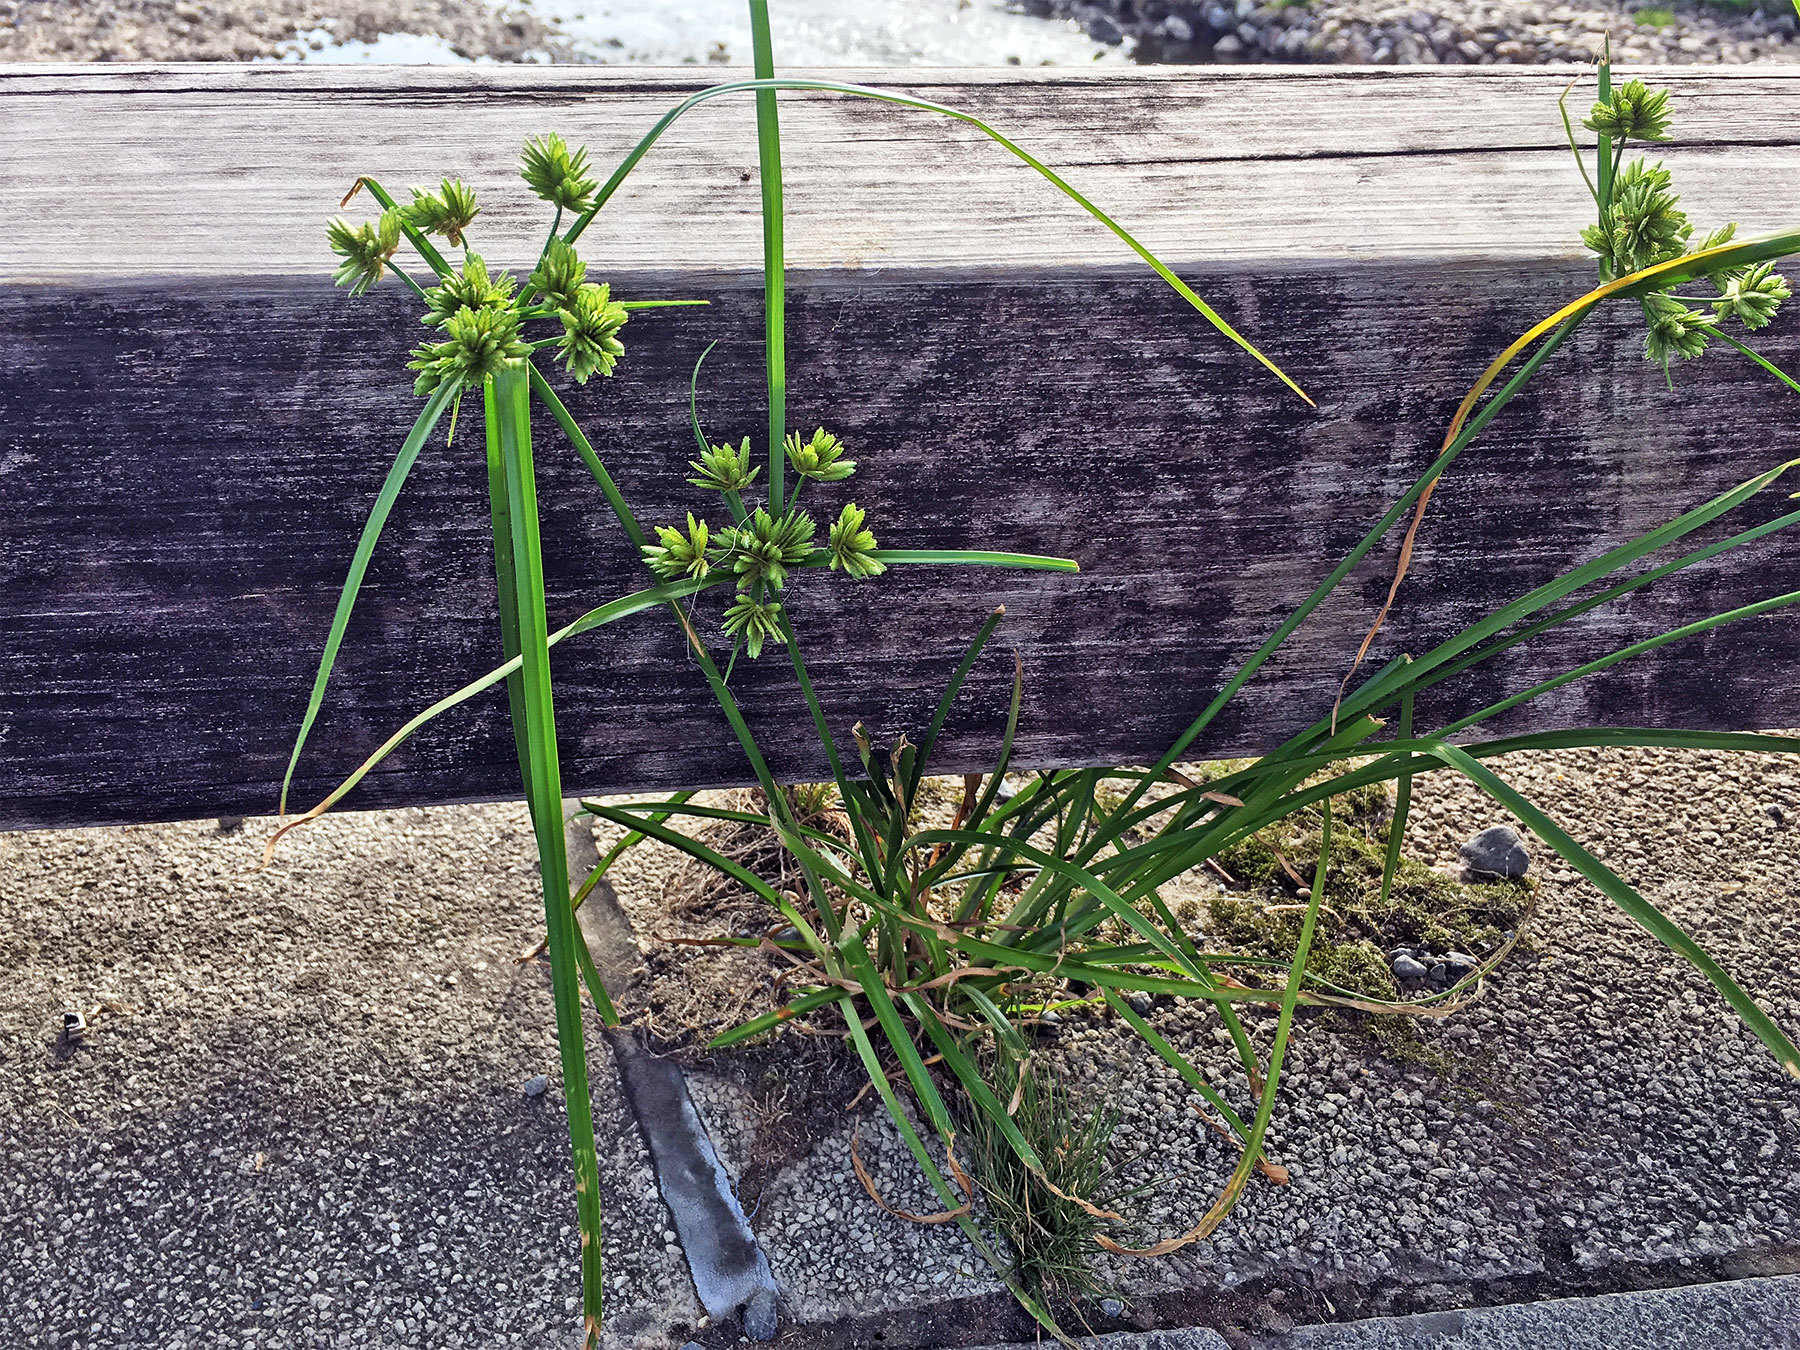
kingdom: Plantae
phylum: Tracheophyta
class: Liliopsida
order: Poales
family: Cyperaceae
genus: Cyperus
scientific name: Cyperus eragrostis
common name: Tall flatsedge
